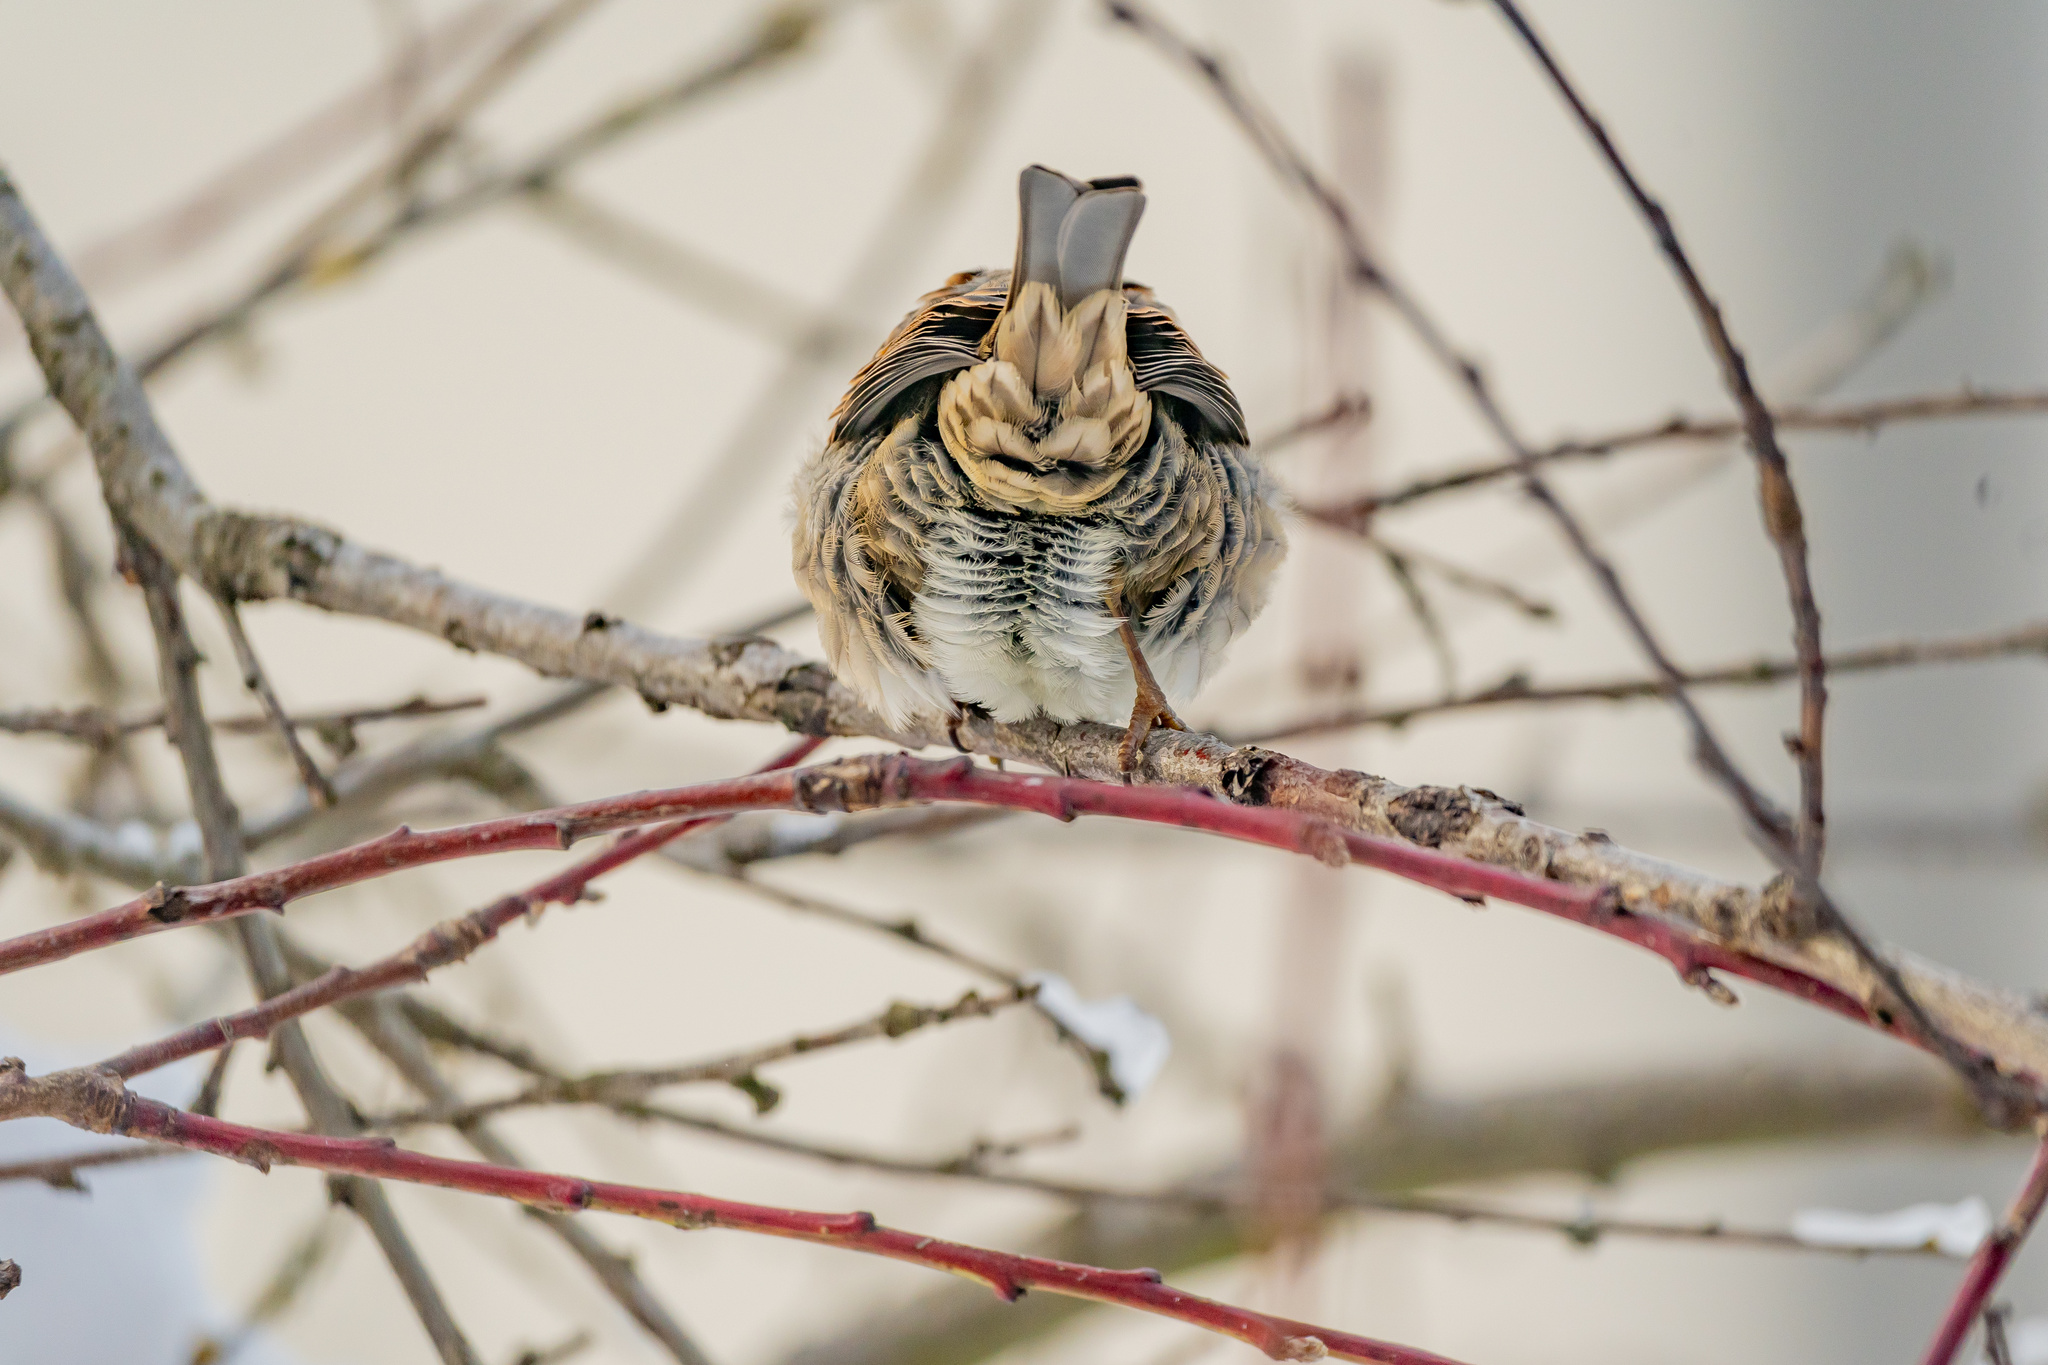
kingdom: Animalia
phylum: Chordata
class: Aves
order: Passeriformes
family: Passeridae
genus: Passer
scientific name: Passer domesticus
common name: House sparrow
